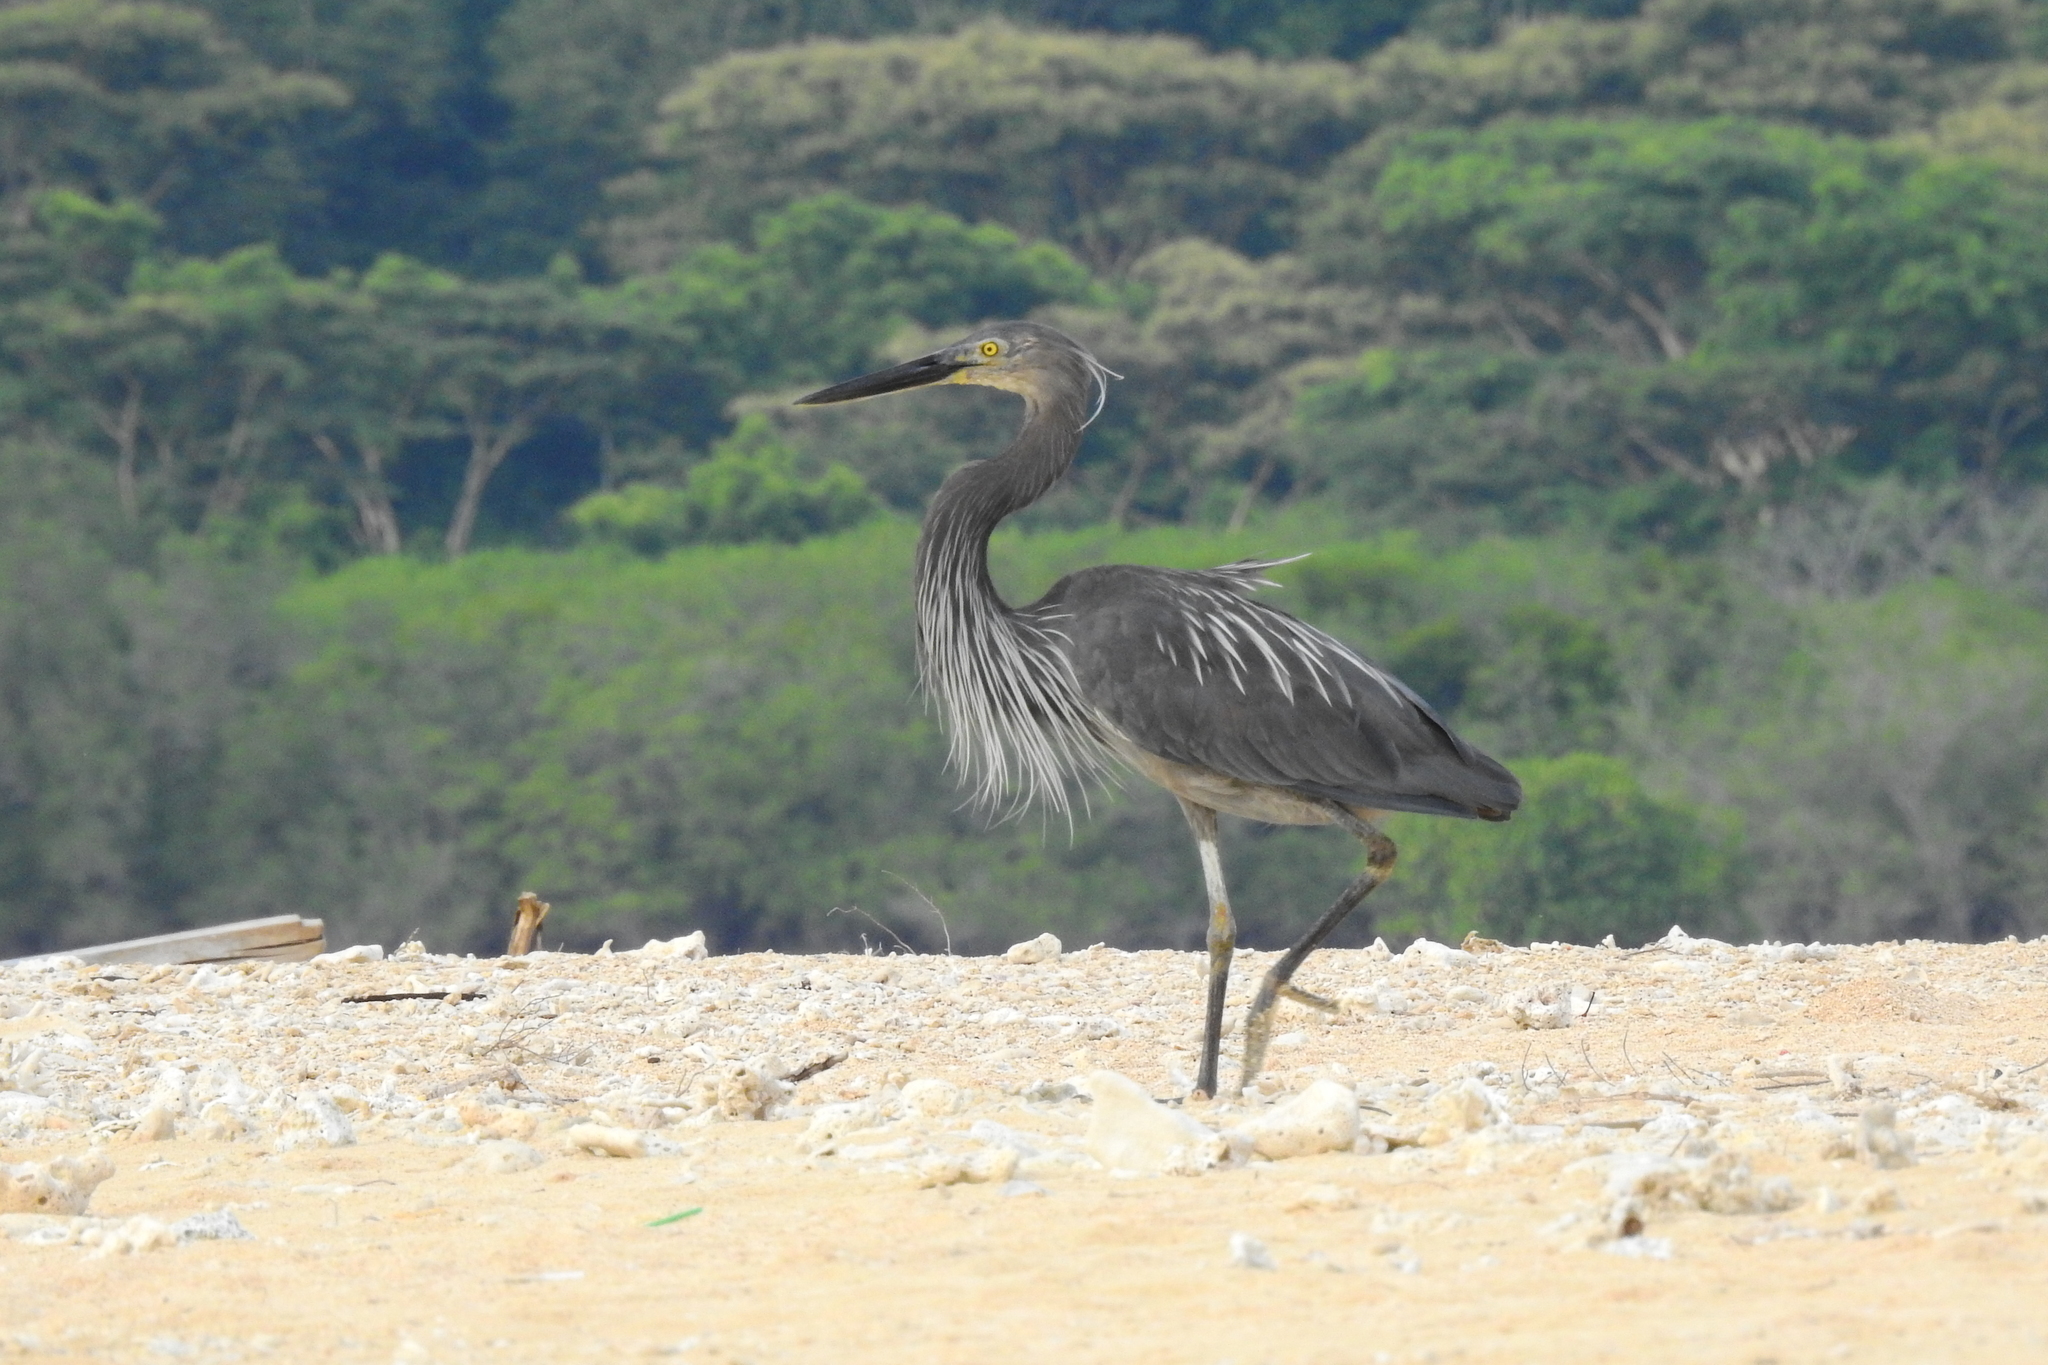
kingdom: Animalia
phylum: Chordata
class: Aves
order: Pelecaniformes
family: Ardeidae
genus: Ardea
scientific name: Ardea sumatrana
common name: Great-billed heron
